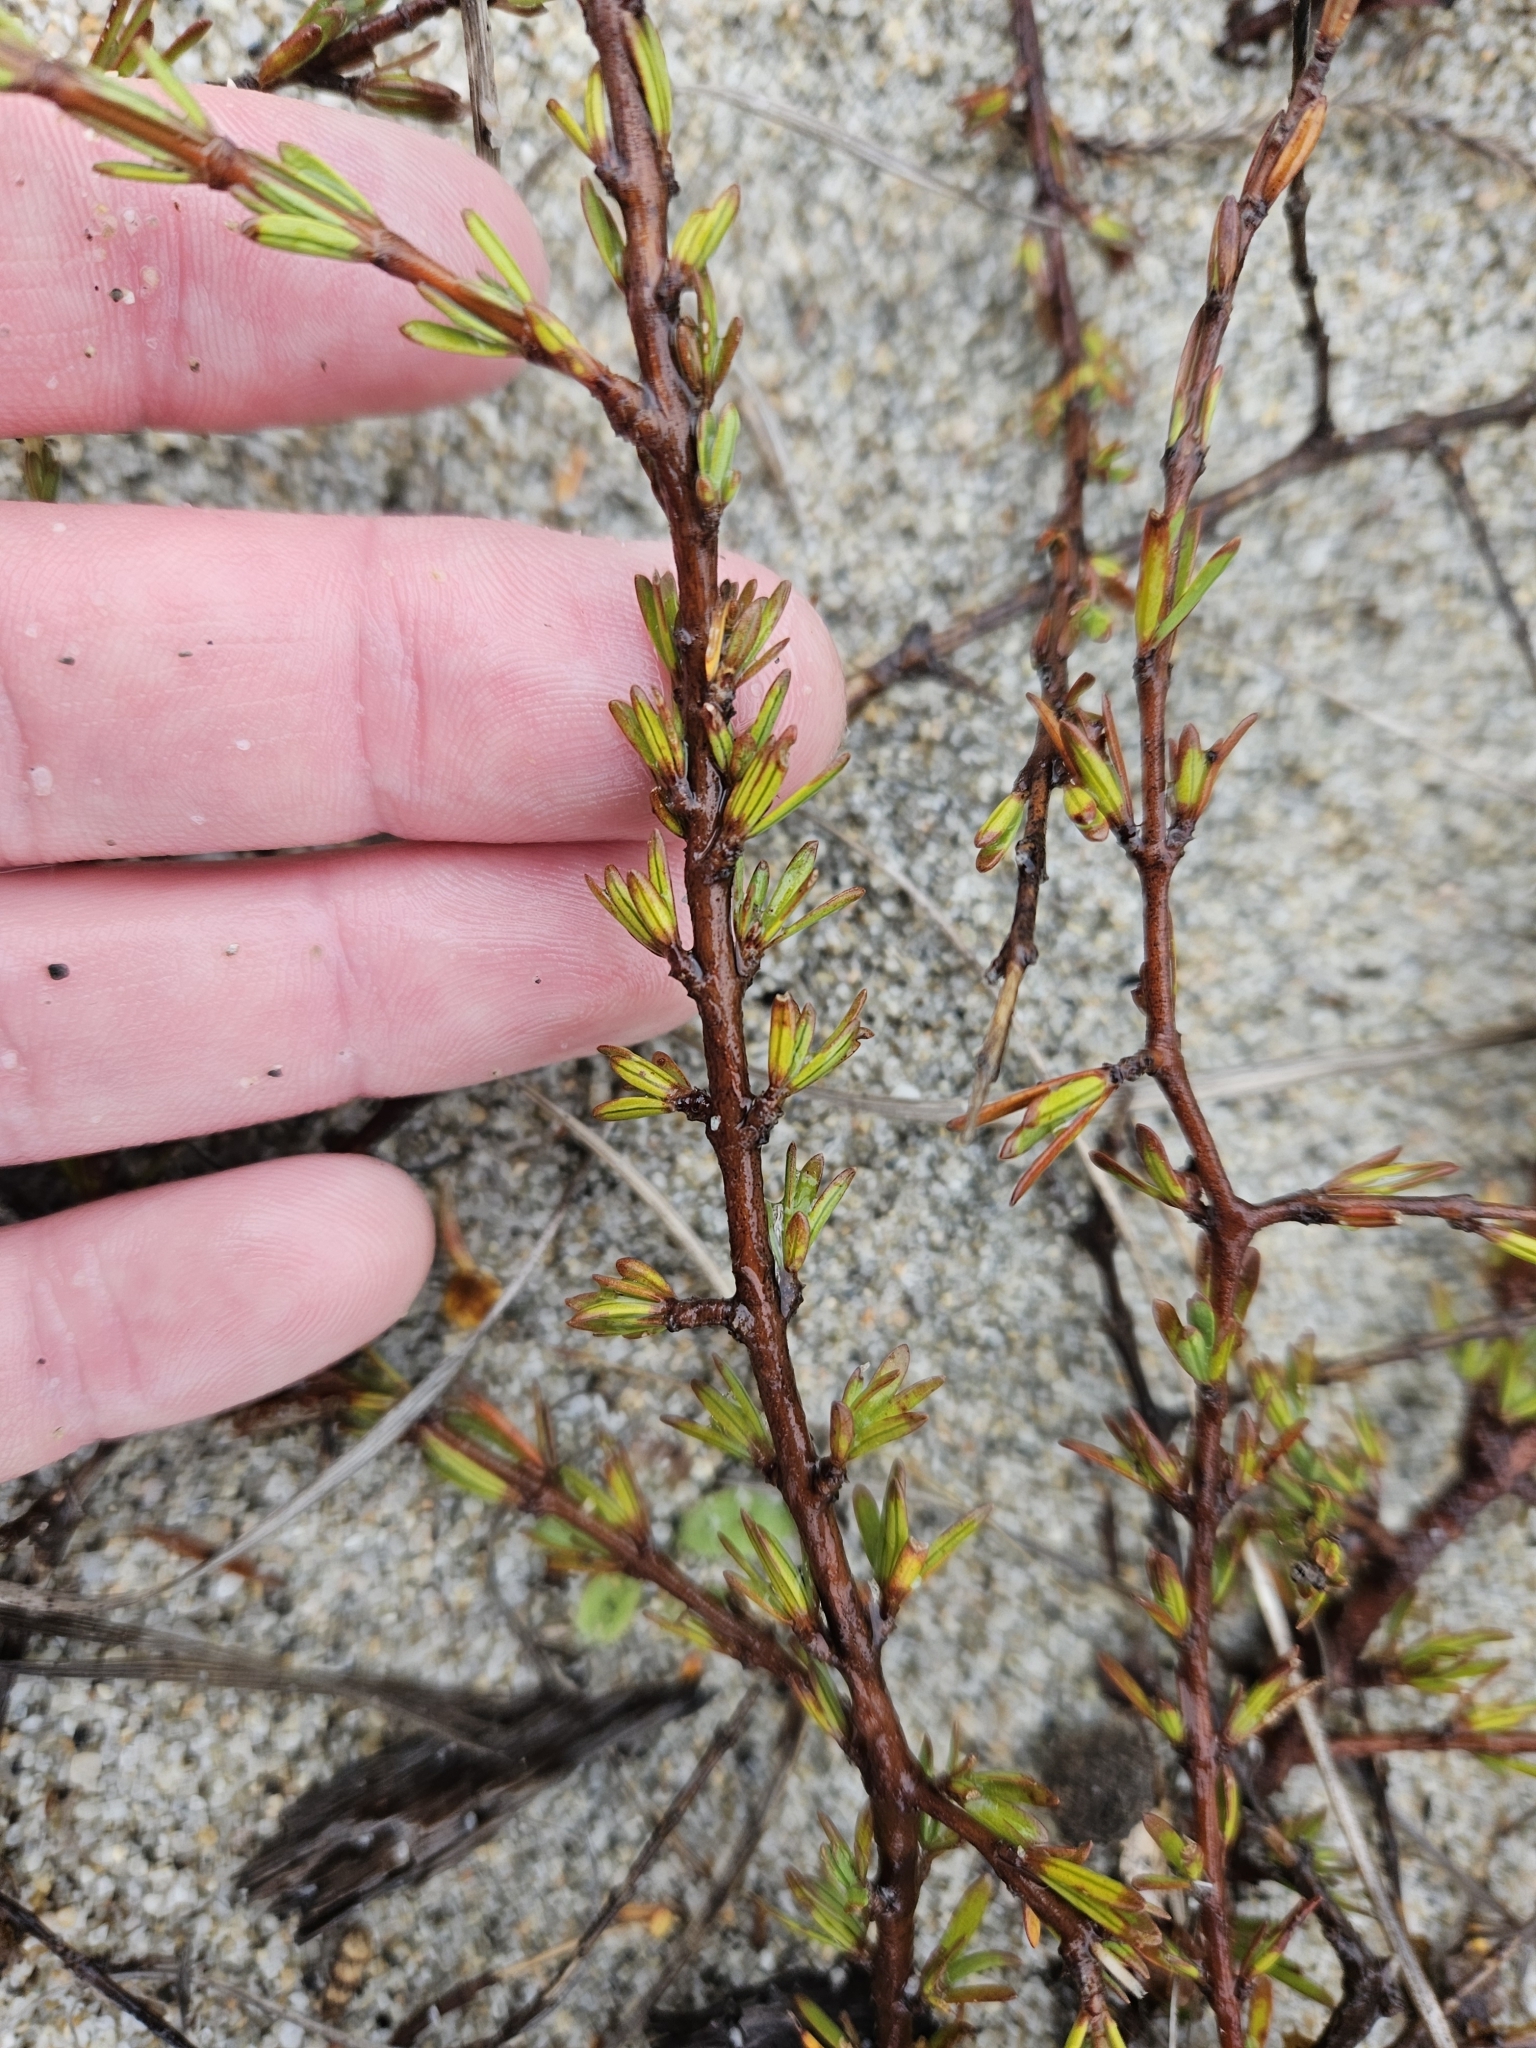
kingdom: Plantae
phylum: Tracheophyta
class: Magnoliopsida
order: Gentianales
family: Rubiaceae
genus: Coprosma
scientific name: Coprosma acerosa
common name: Sand coprosma
